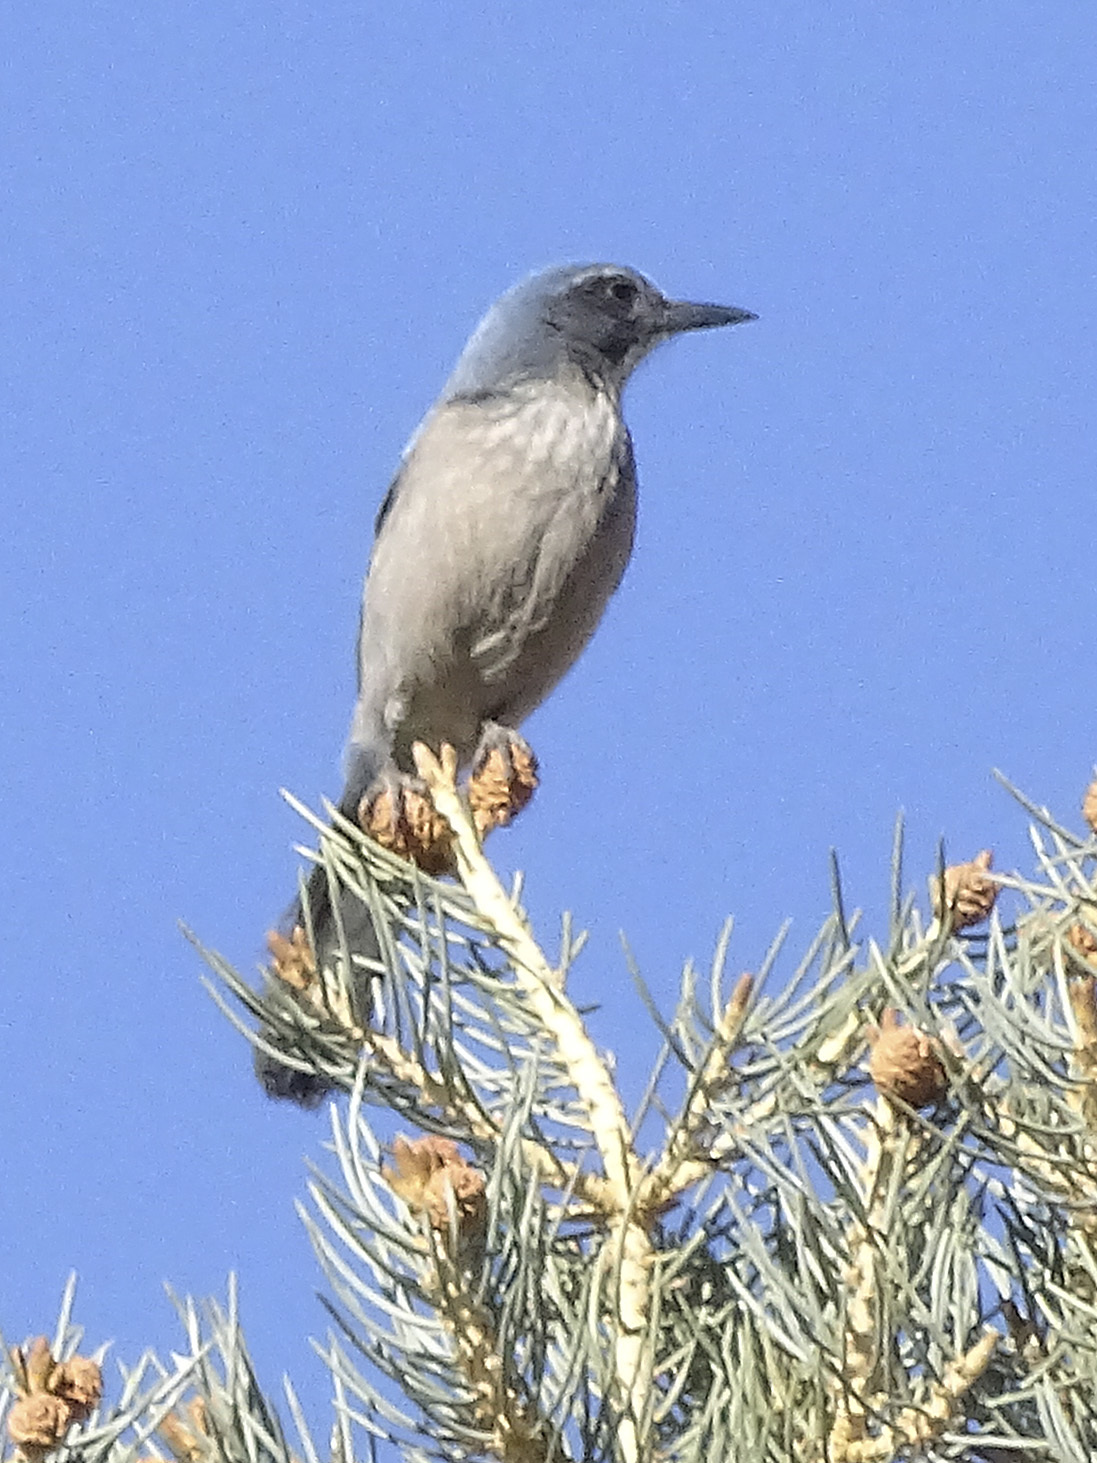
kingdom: Animalia
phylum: Chordata
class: Aves
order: Passeriformes
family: Corvidae
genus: Aphelocoma
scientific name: Aphelocoma woodhouseii
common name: Woodhouse's scrub-jay
